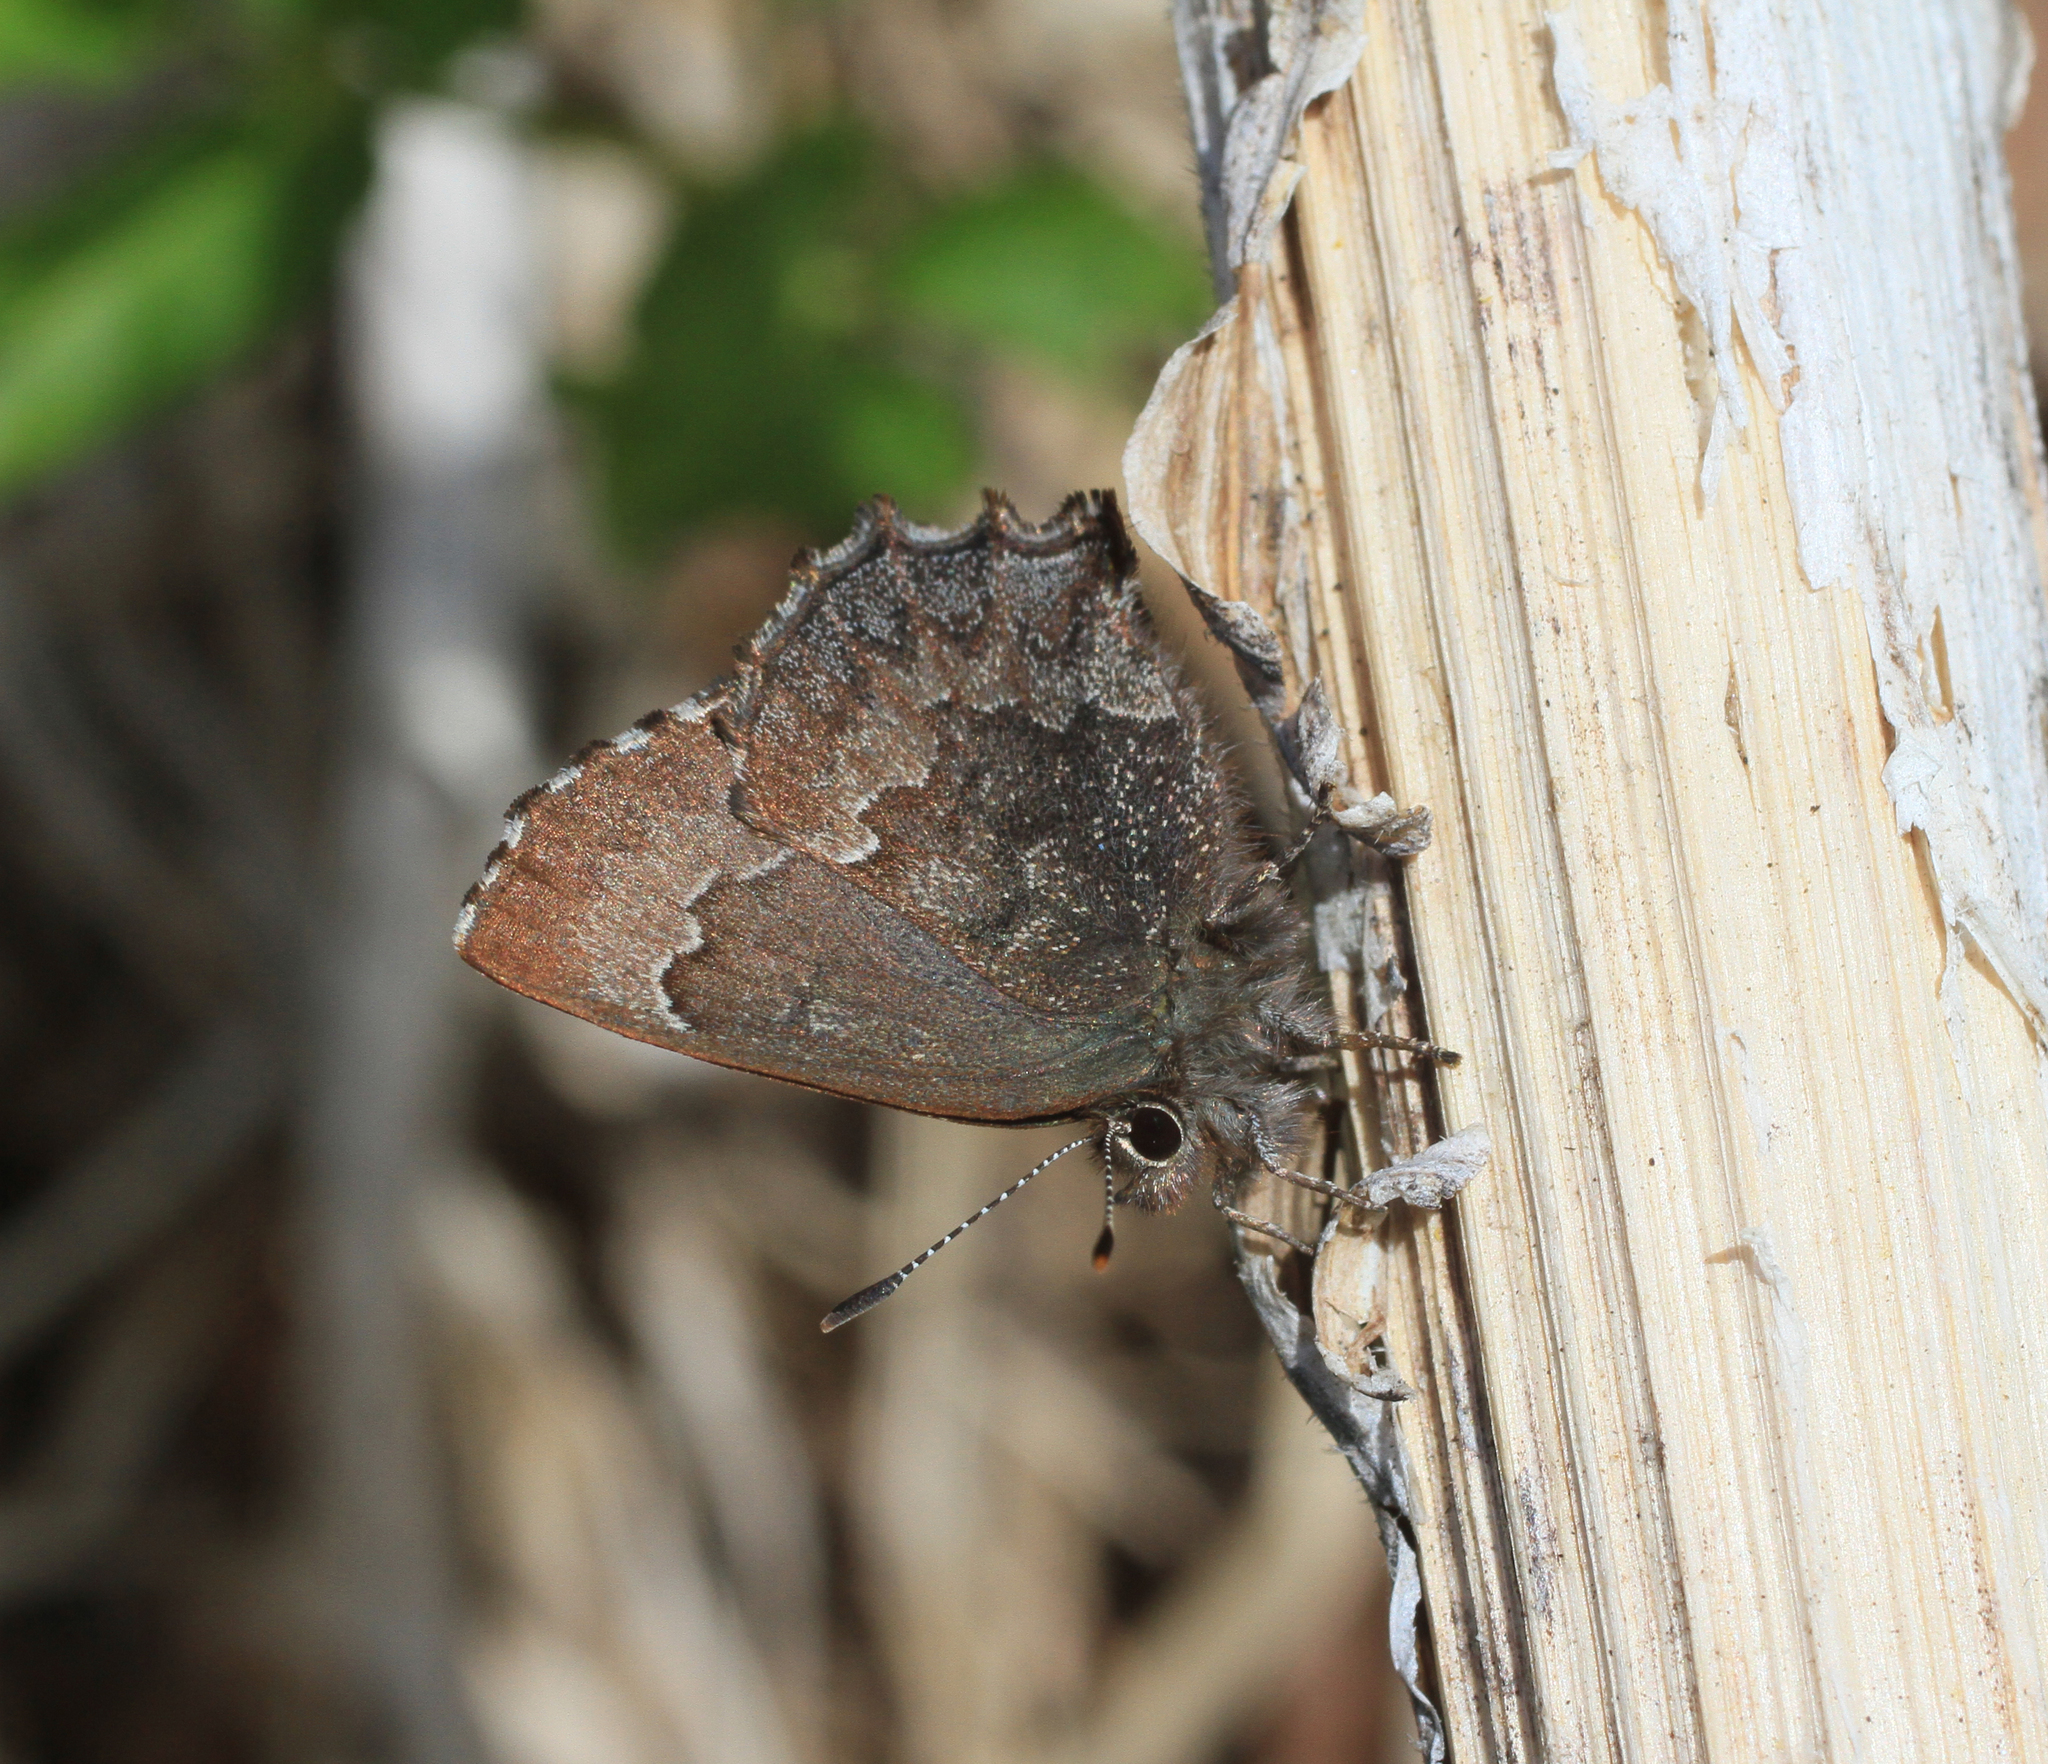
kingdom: Animalia
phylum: Arthropoda
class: Insecta
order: Lepidoptera
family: Lycaenidae
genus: Ginzia
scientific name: Ginzia Ahlbergia frivaldszkyi
